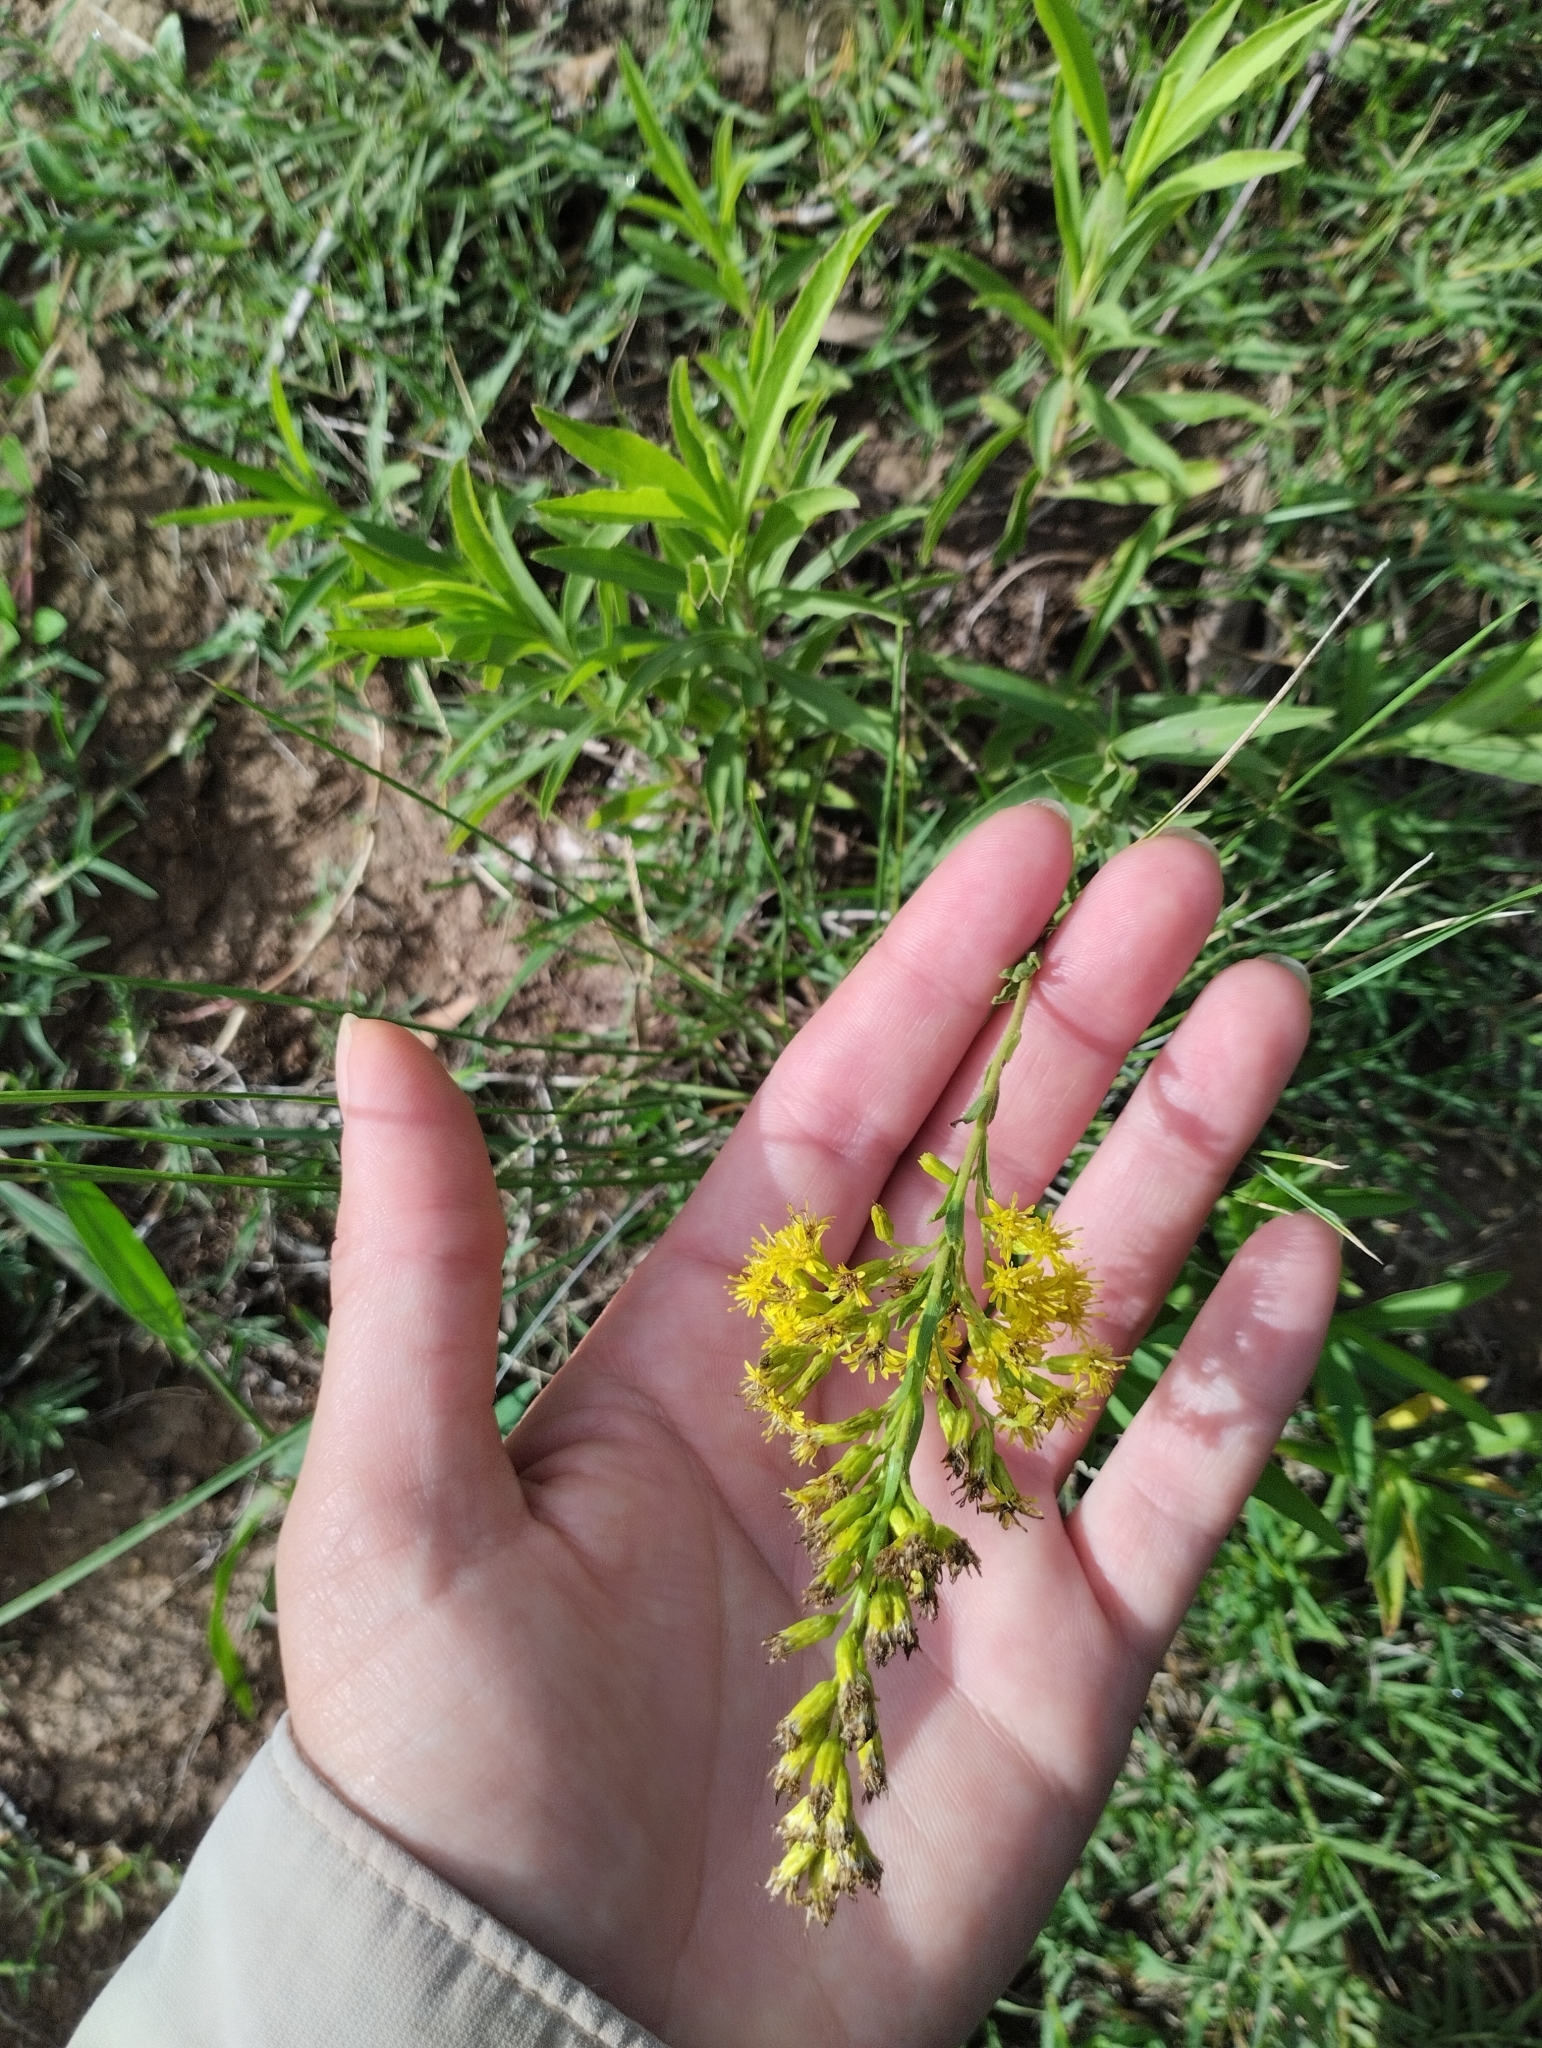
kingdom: Plantae
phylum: Tracheophyta
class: Magnoliopsida
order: Asterales
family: Asteraceae
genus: Solidago
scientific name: Solidago chilensis
